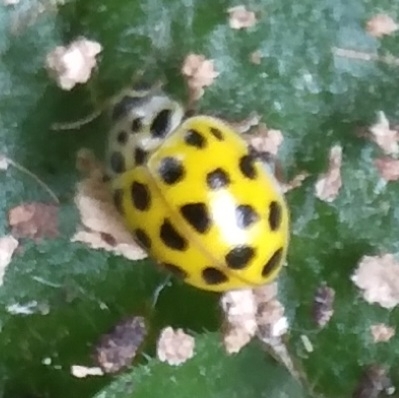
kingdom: Animalia
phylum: Arthropoda
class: Insecta
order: Coleoptera
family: Coccinellidae
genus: Psyllobora
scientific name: Psyllobora vigintiduopunctata
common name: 22-spot ladybird
